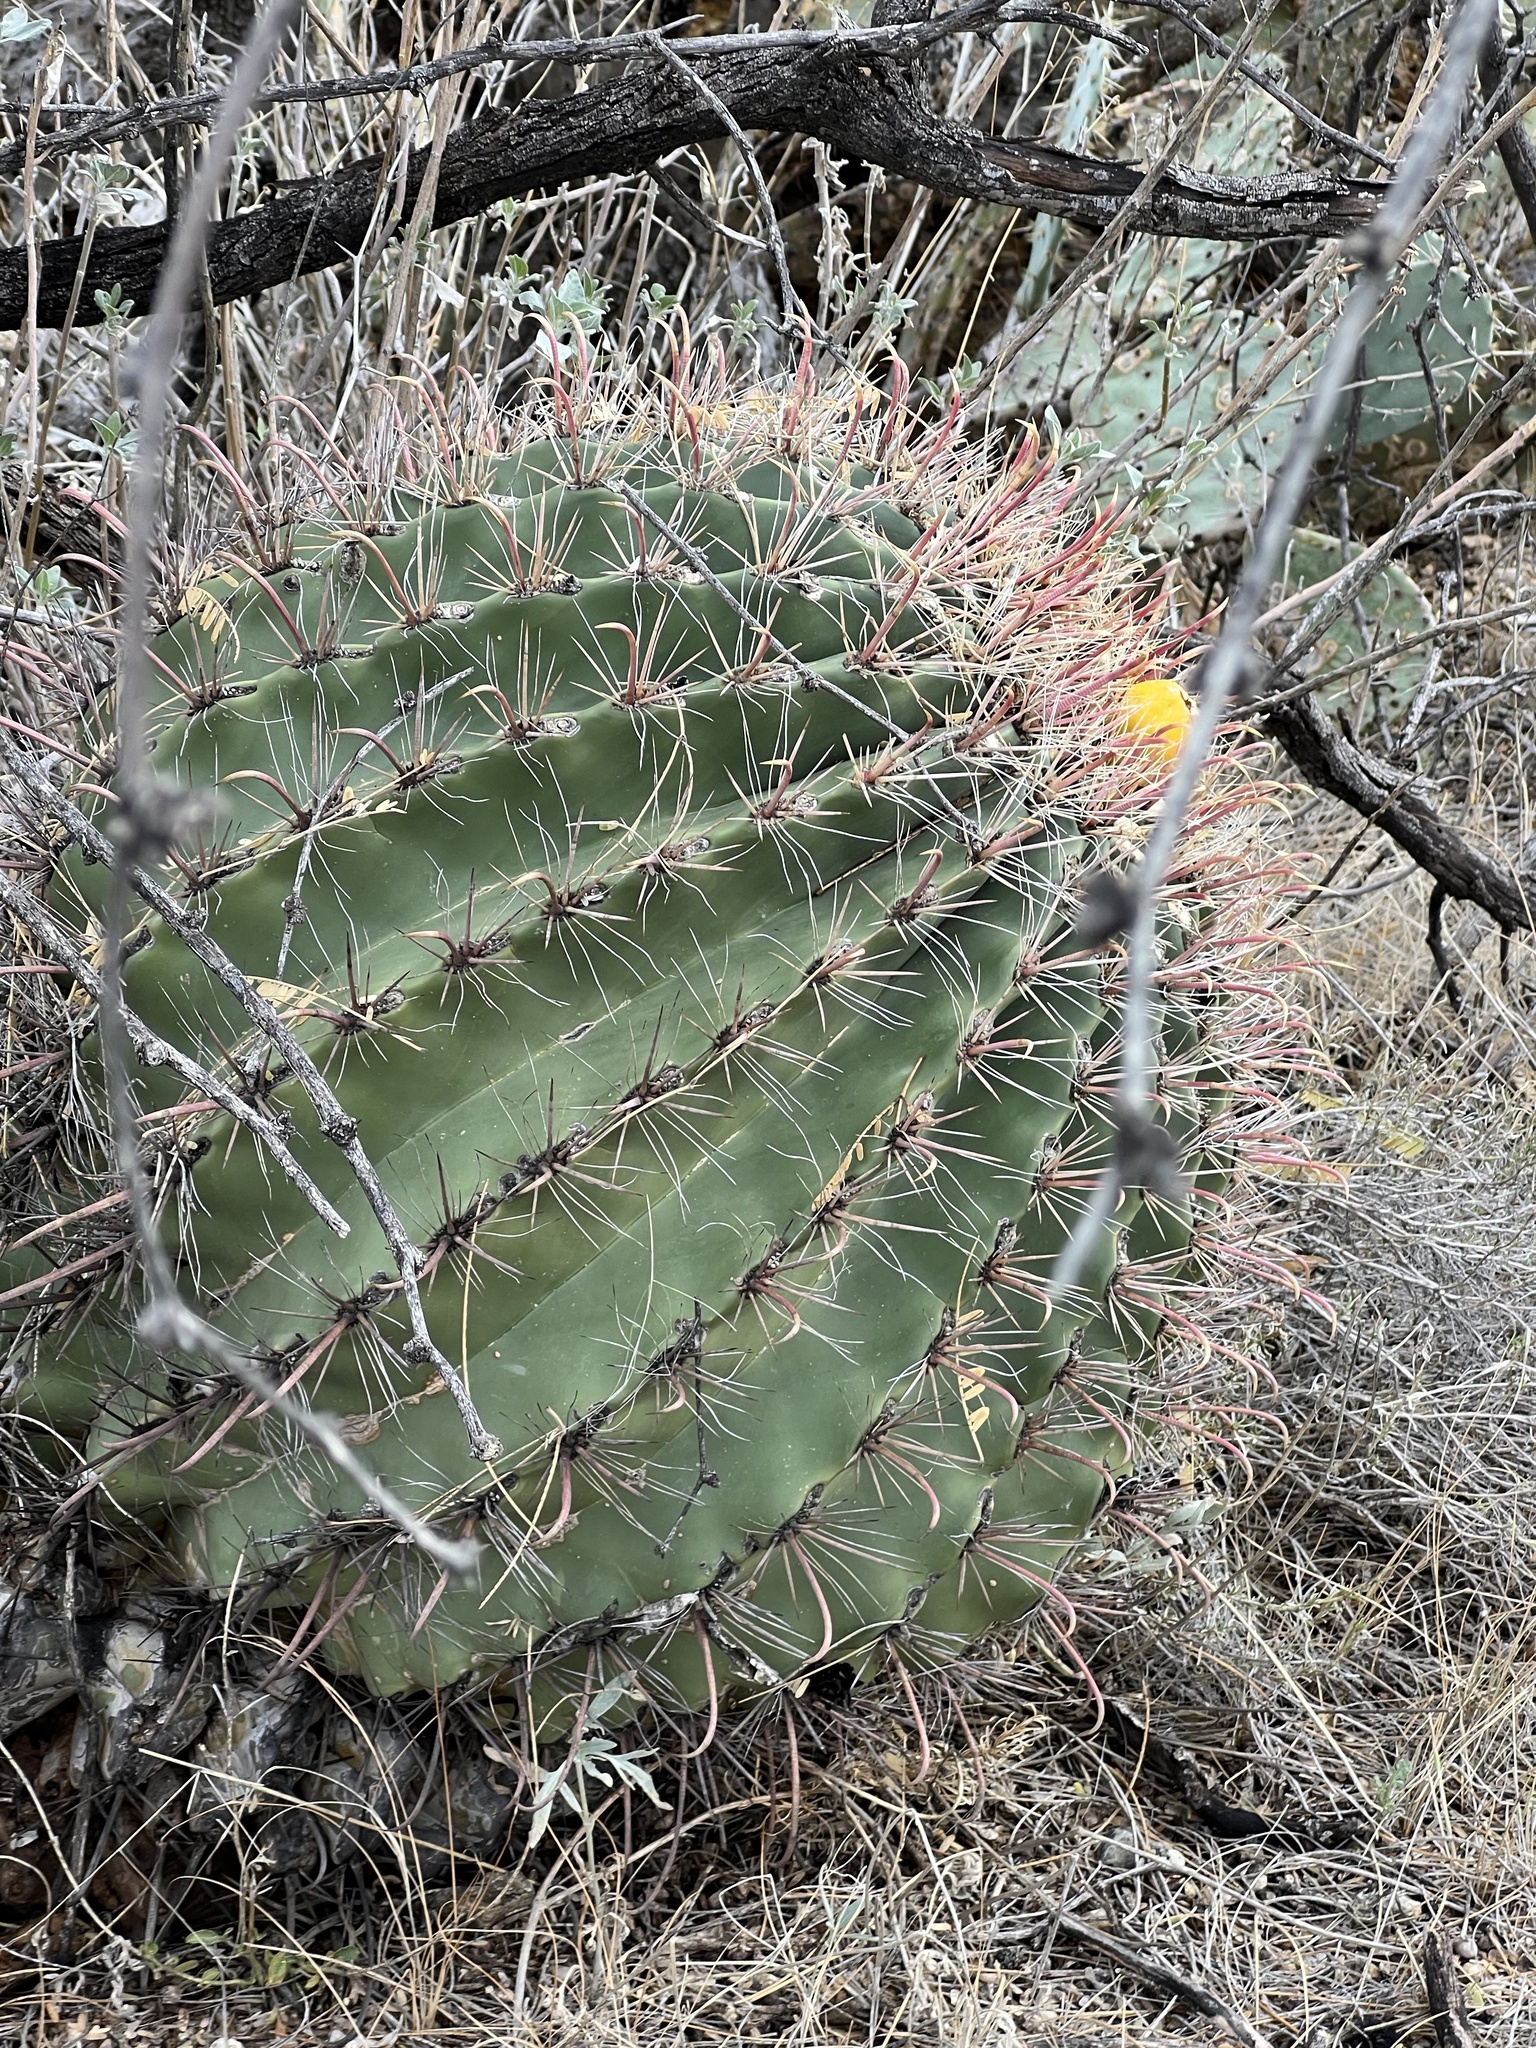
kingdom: Plantae
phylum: Tracheophyta
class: Magnoliopsida
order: Caryophyllales
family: Cactaceae
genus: Ferocactus
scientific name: Ferocactus wislizeni
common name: Candy barrel cactus
